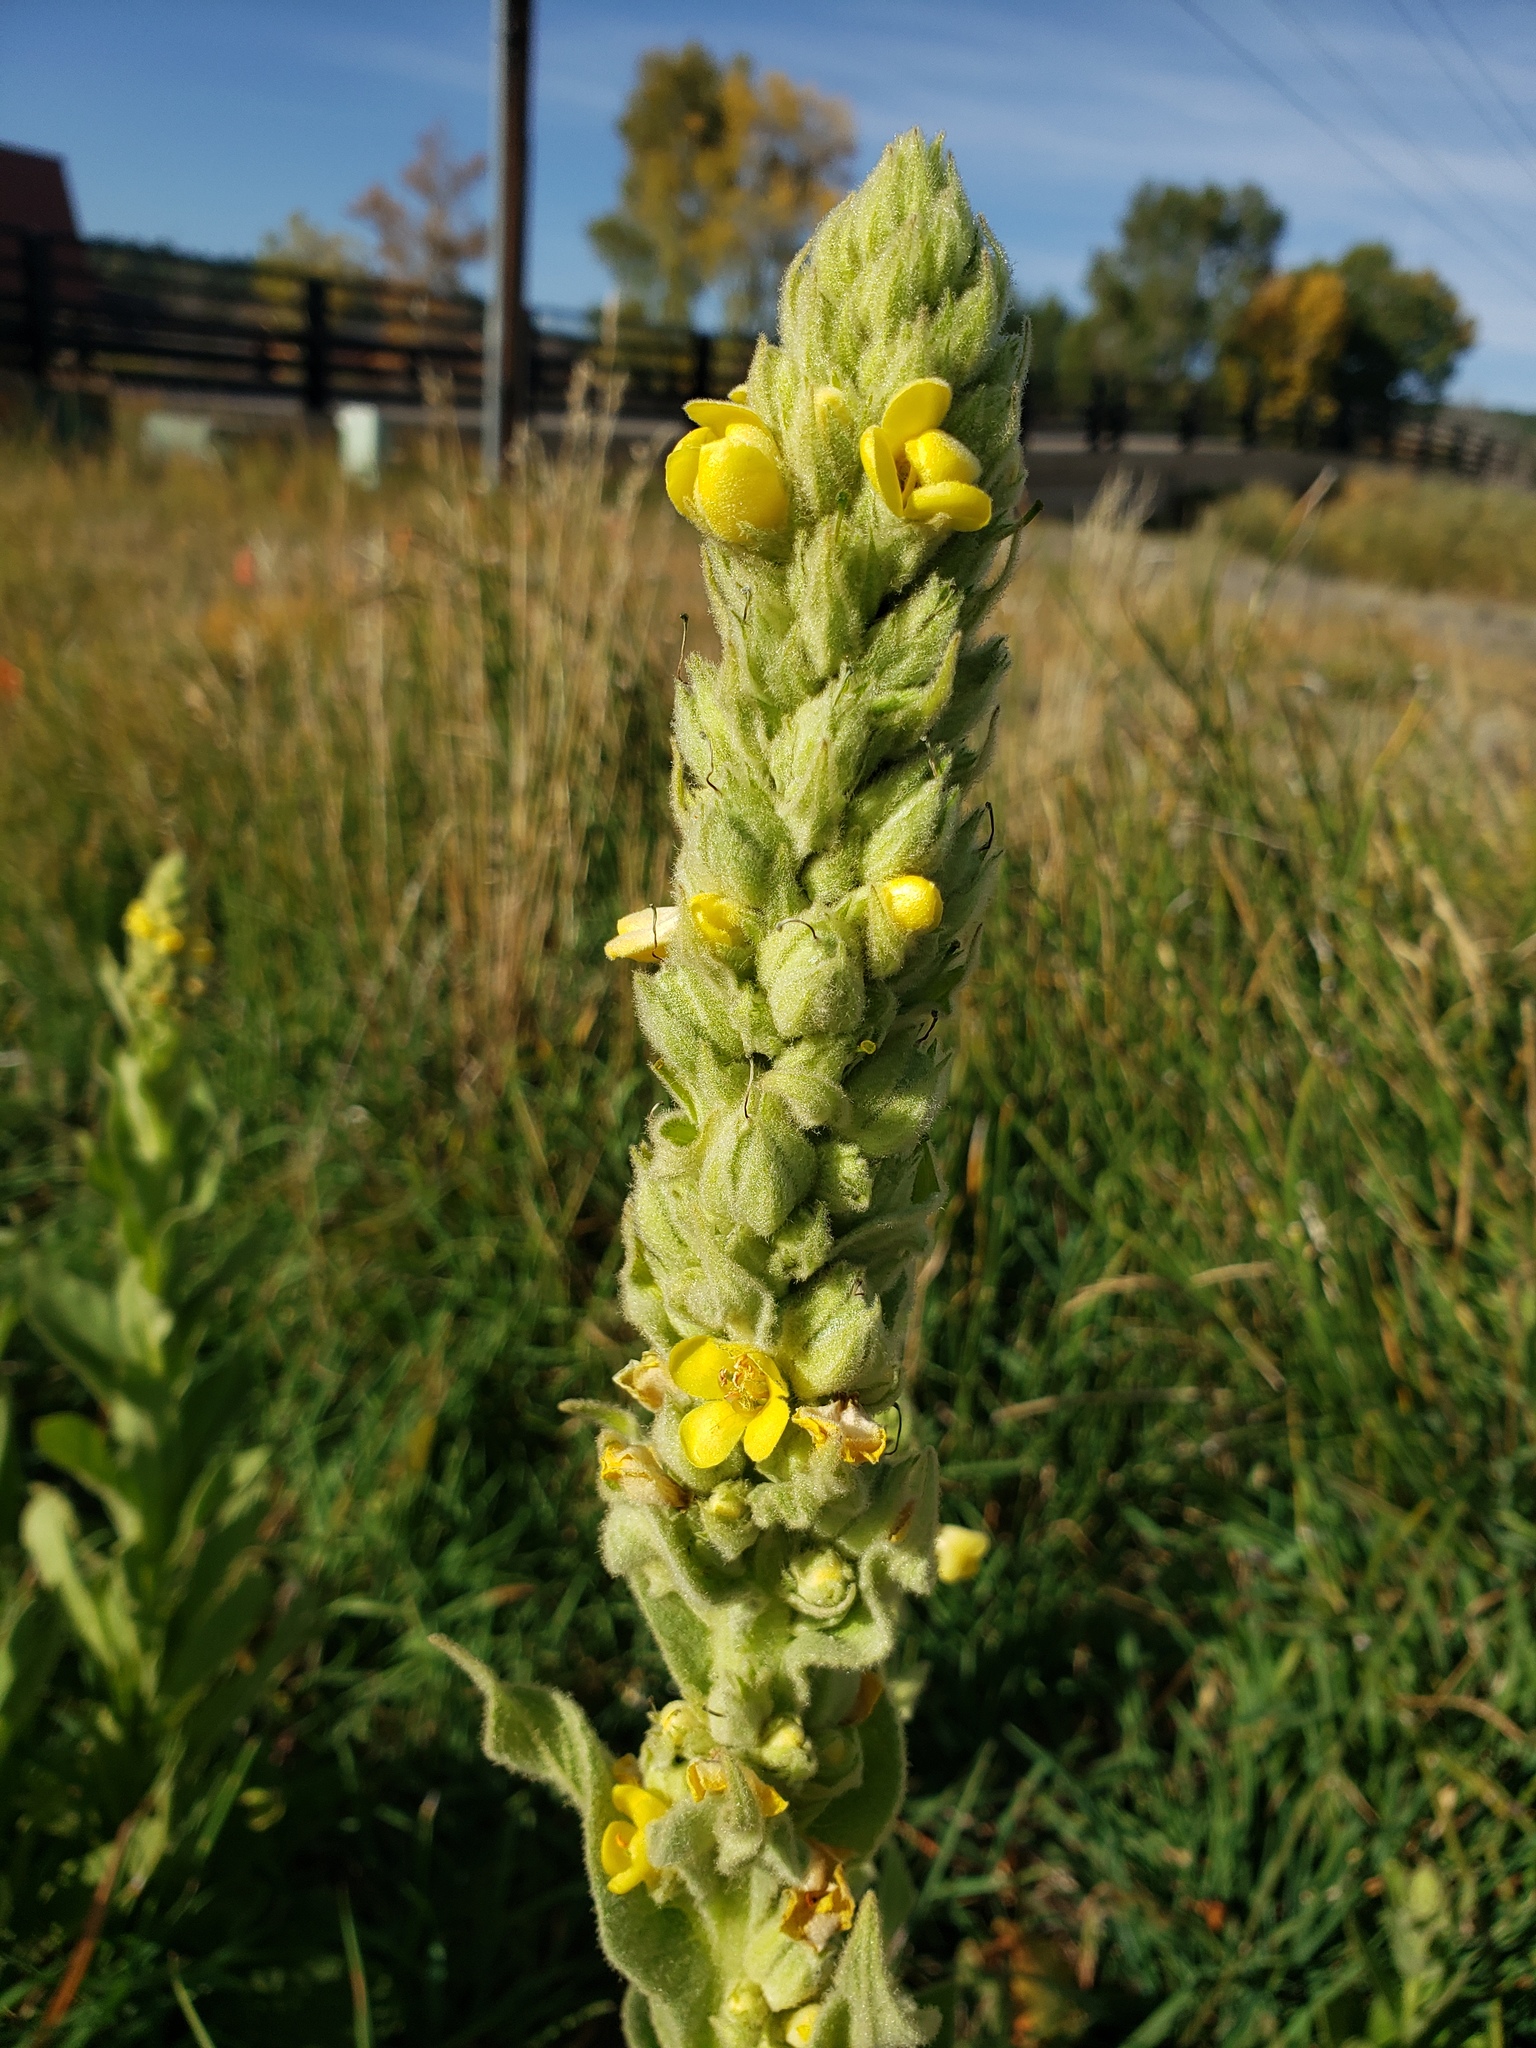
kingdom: Plantae
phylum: Tracheophyta
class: Magnoliopsida
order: Lamiales
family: Scrophulariaceae
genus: Verbascum
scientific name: Verbascum thapsus
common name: Common mullein
